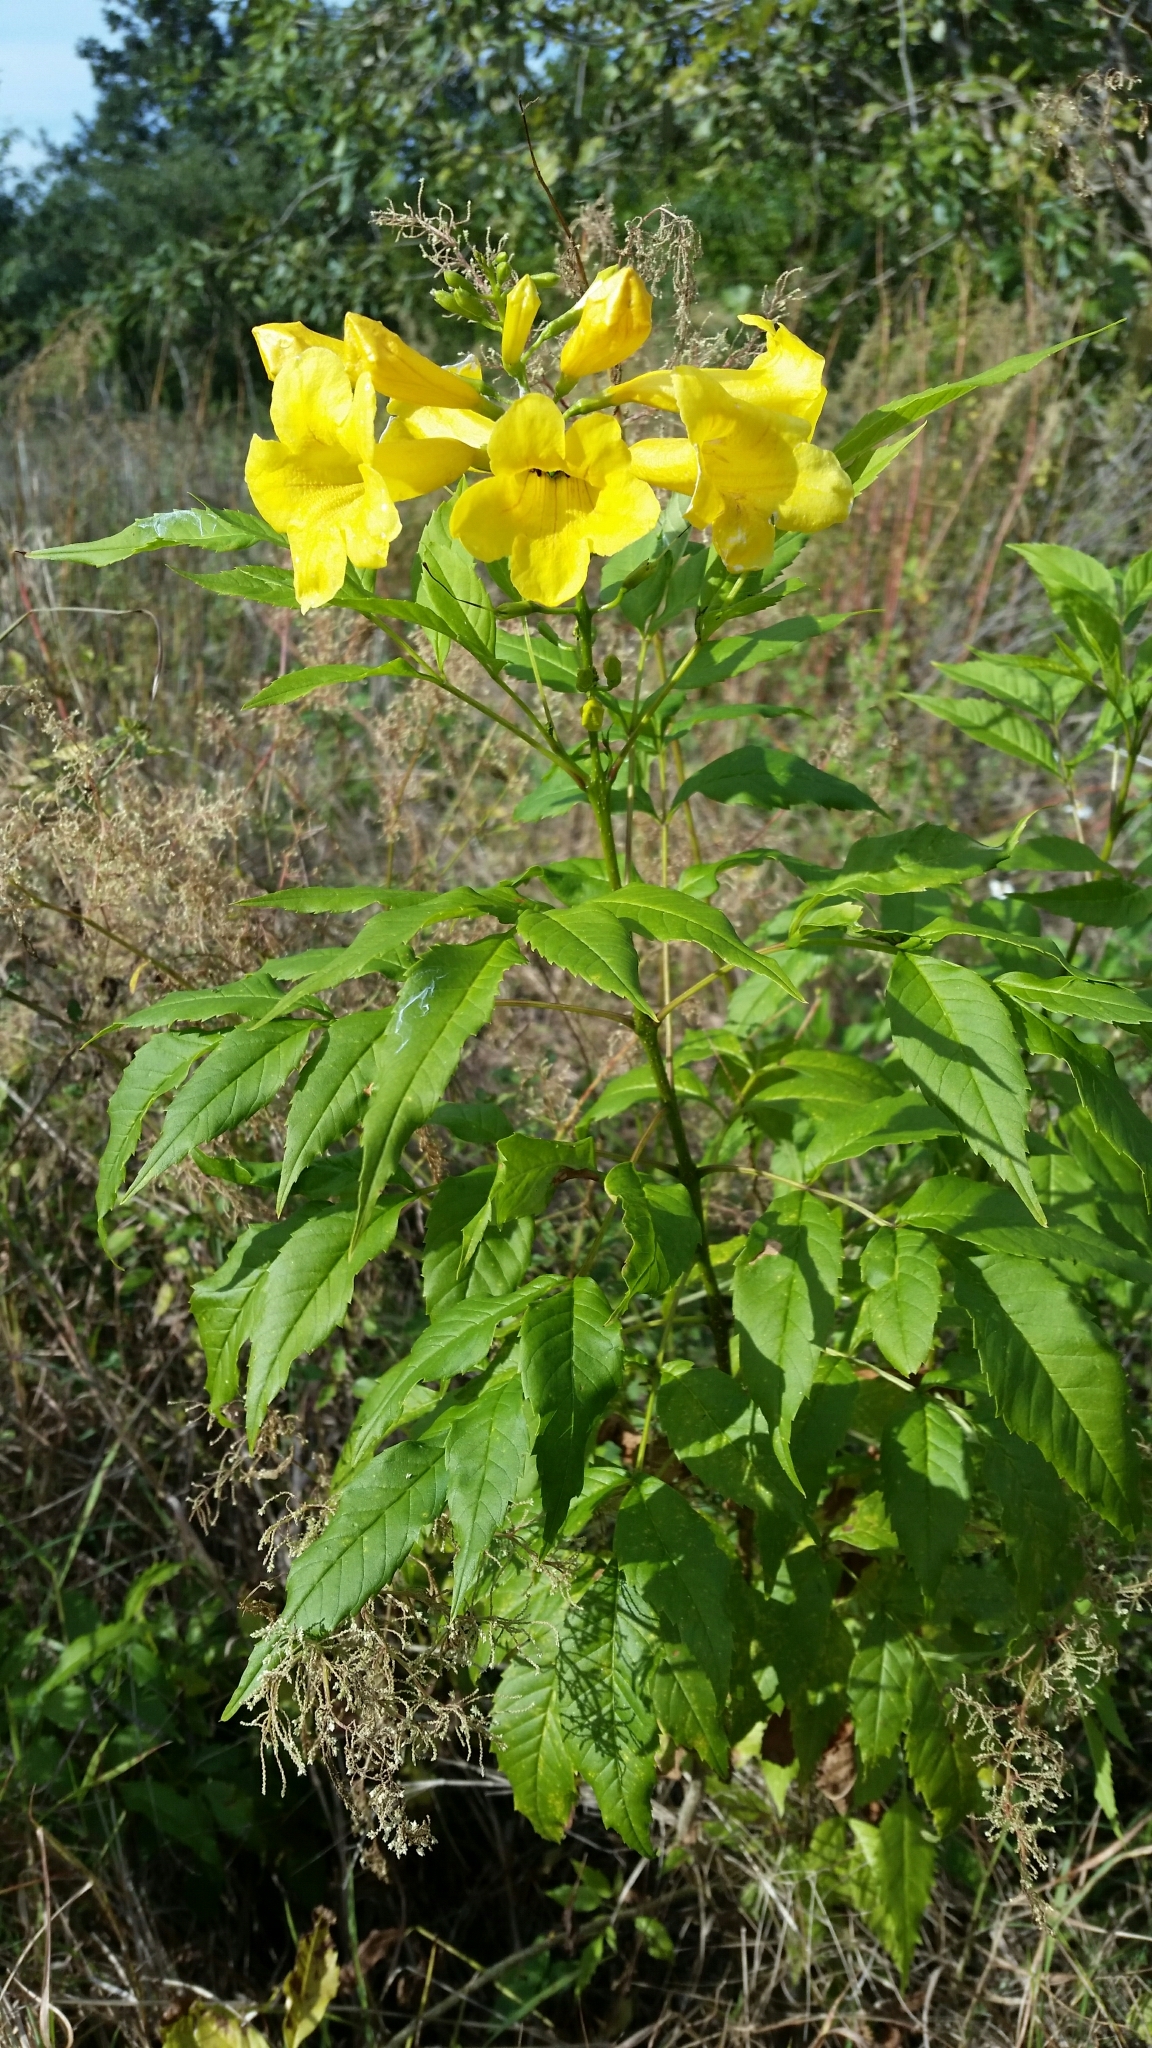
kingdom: Plantae
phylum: Tracheophyta
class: Magnoliopsida
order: Lamiales
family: Bignoniaceae
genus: Tecoma
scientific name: Tecoma stans
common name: Yellow trumpetbush
